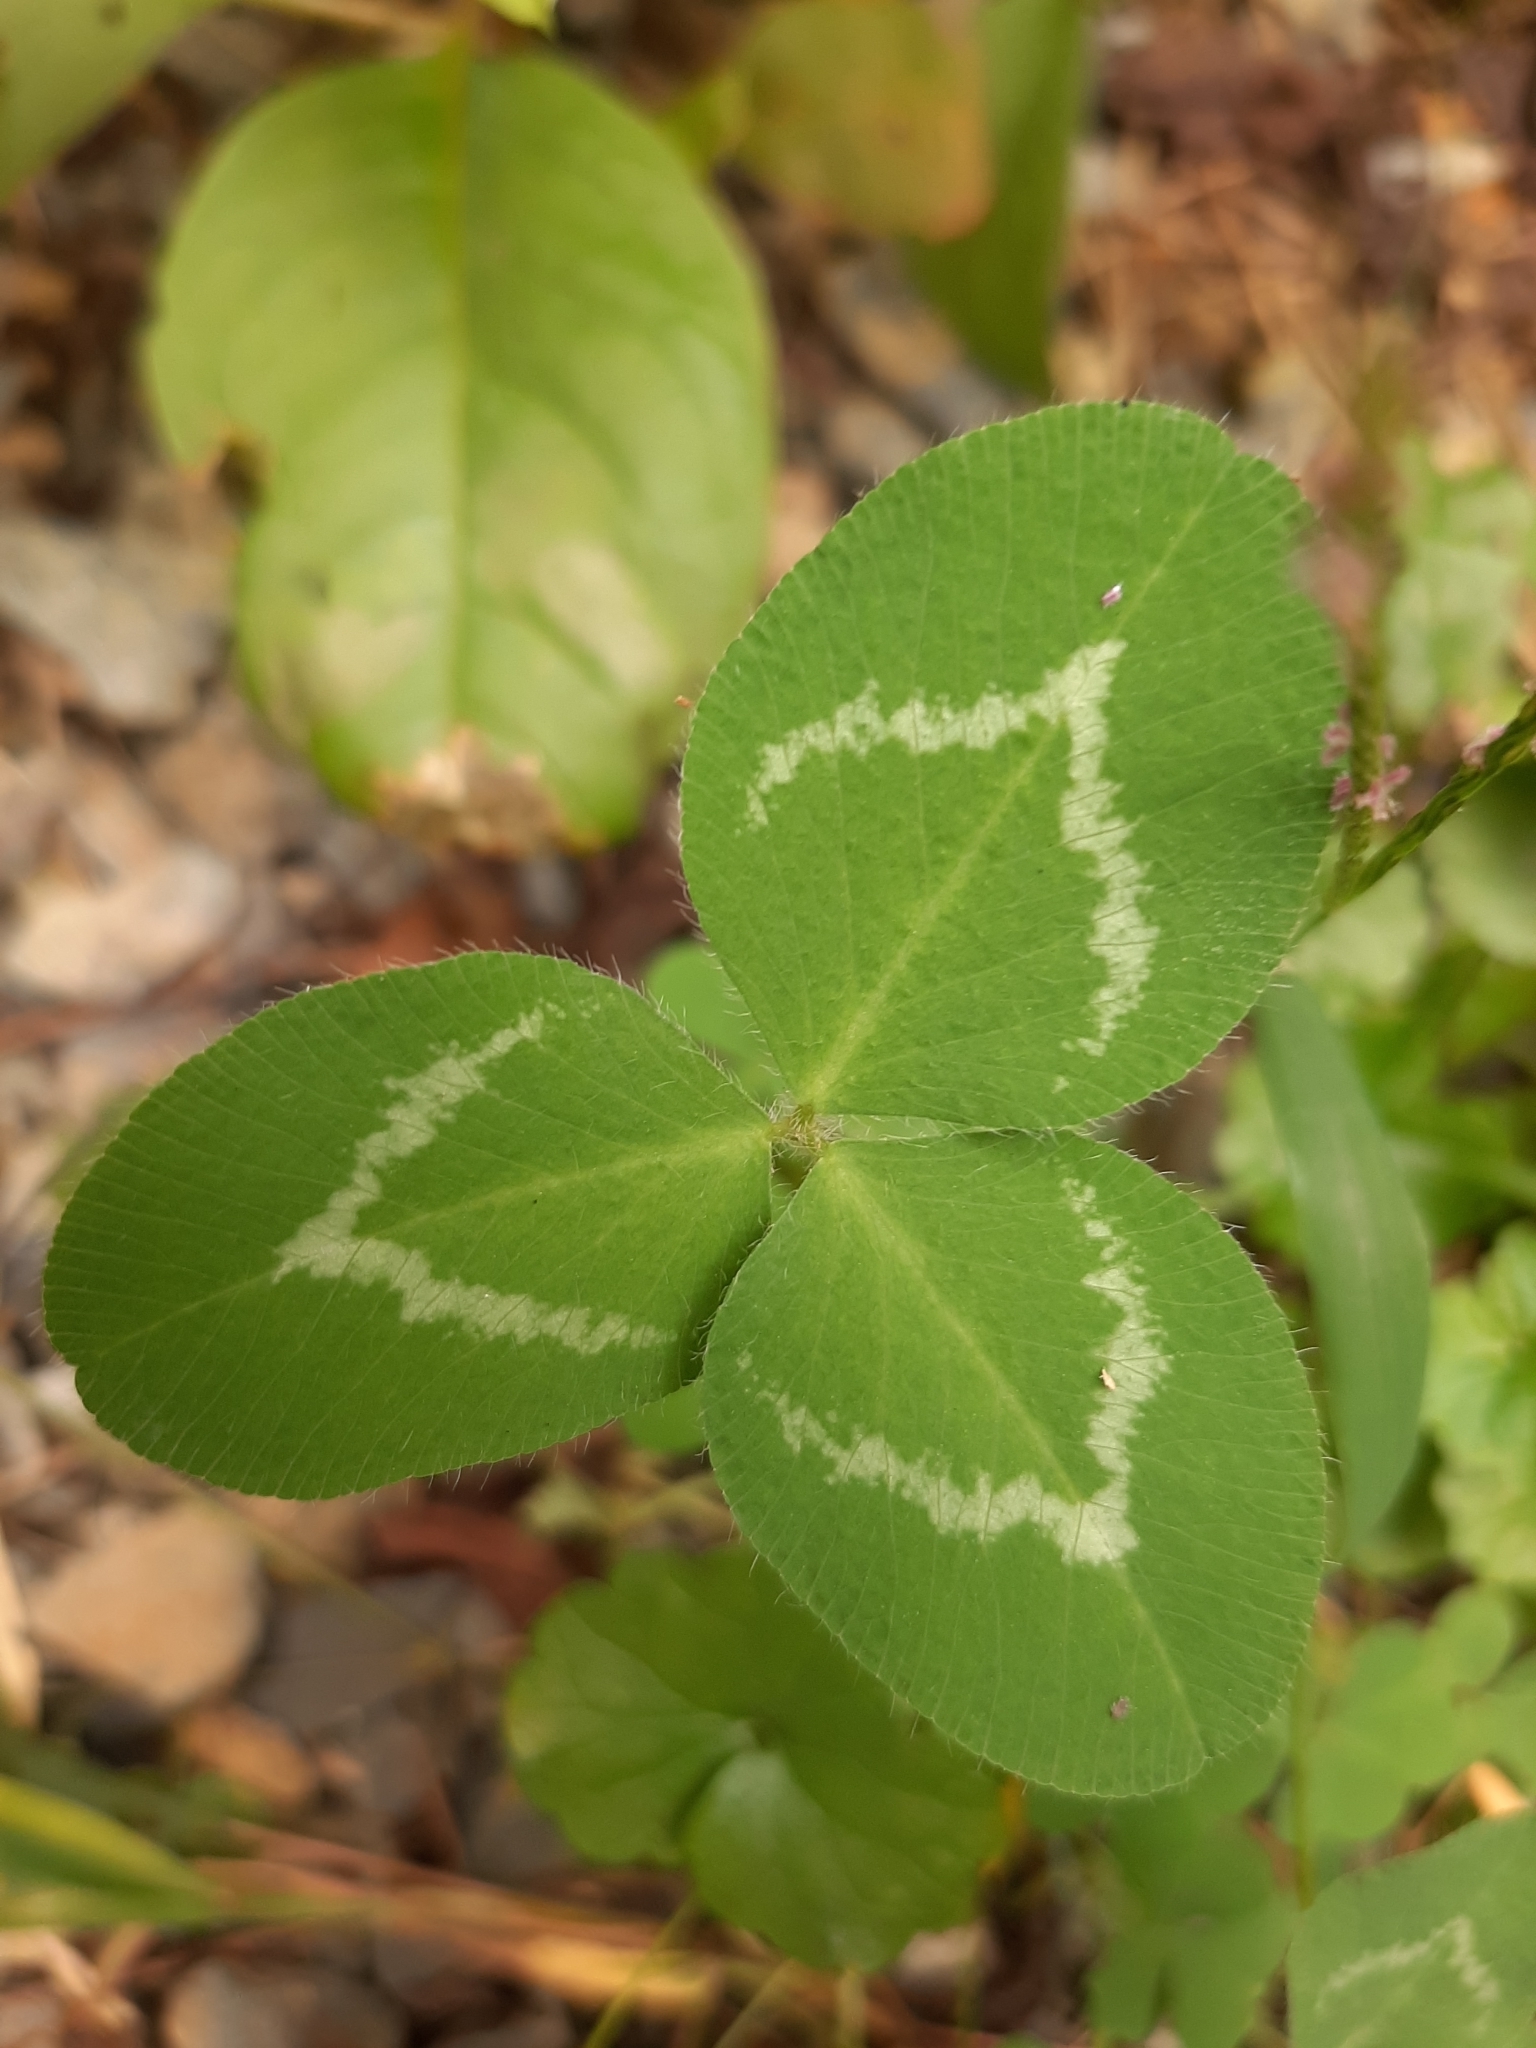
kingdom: Plantae
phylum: Tracheophyta
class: Magnoliopsida
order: Fabales
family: Fabaceae
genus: Trifolium
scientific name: Trifolium pratense
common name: Red clover
